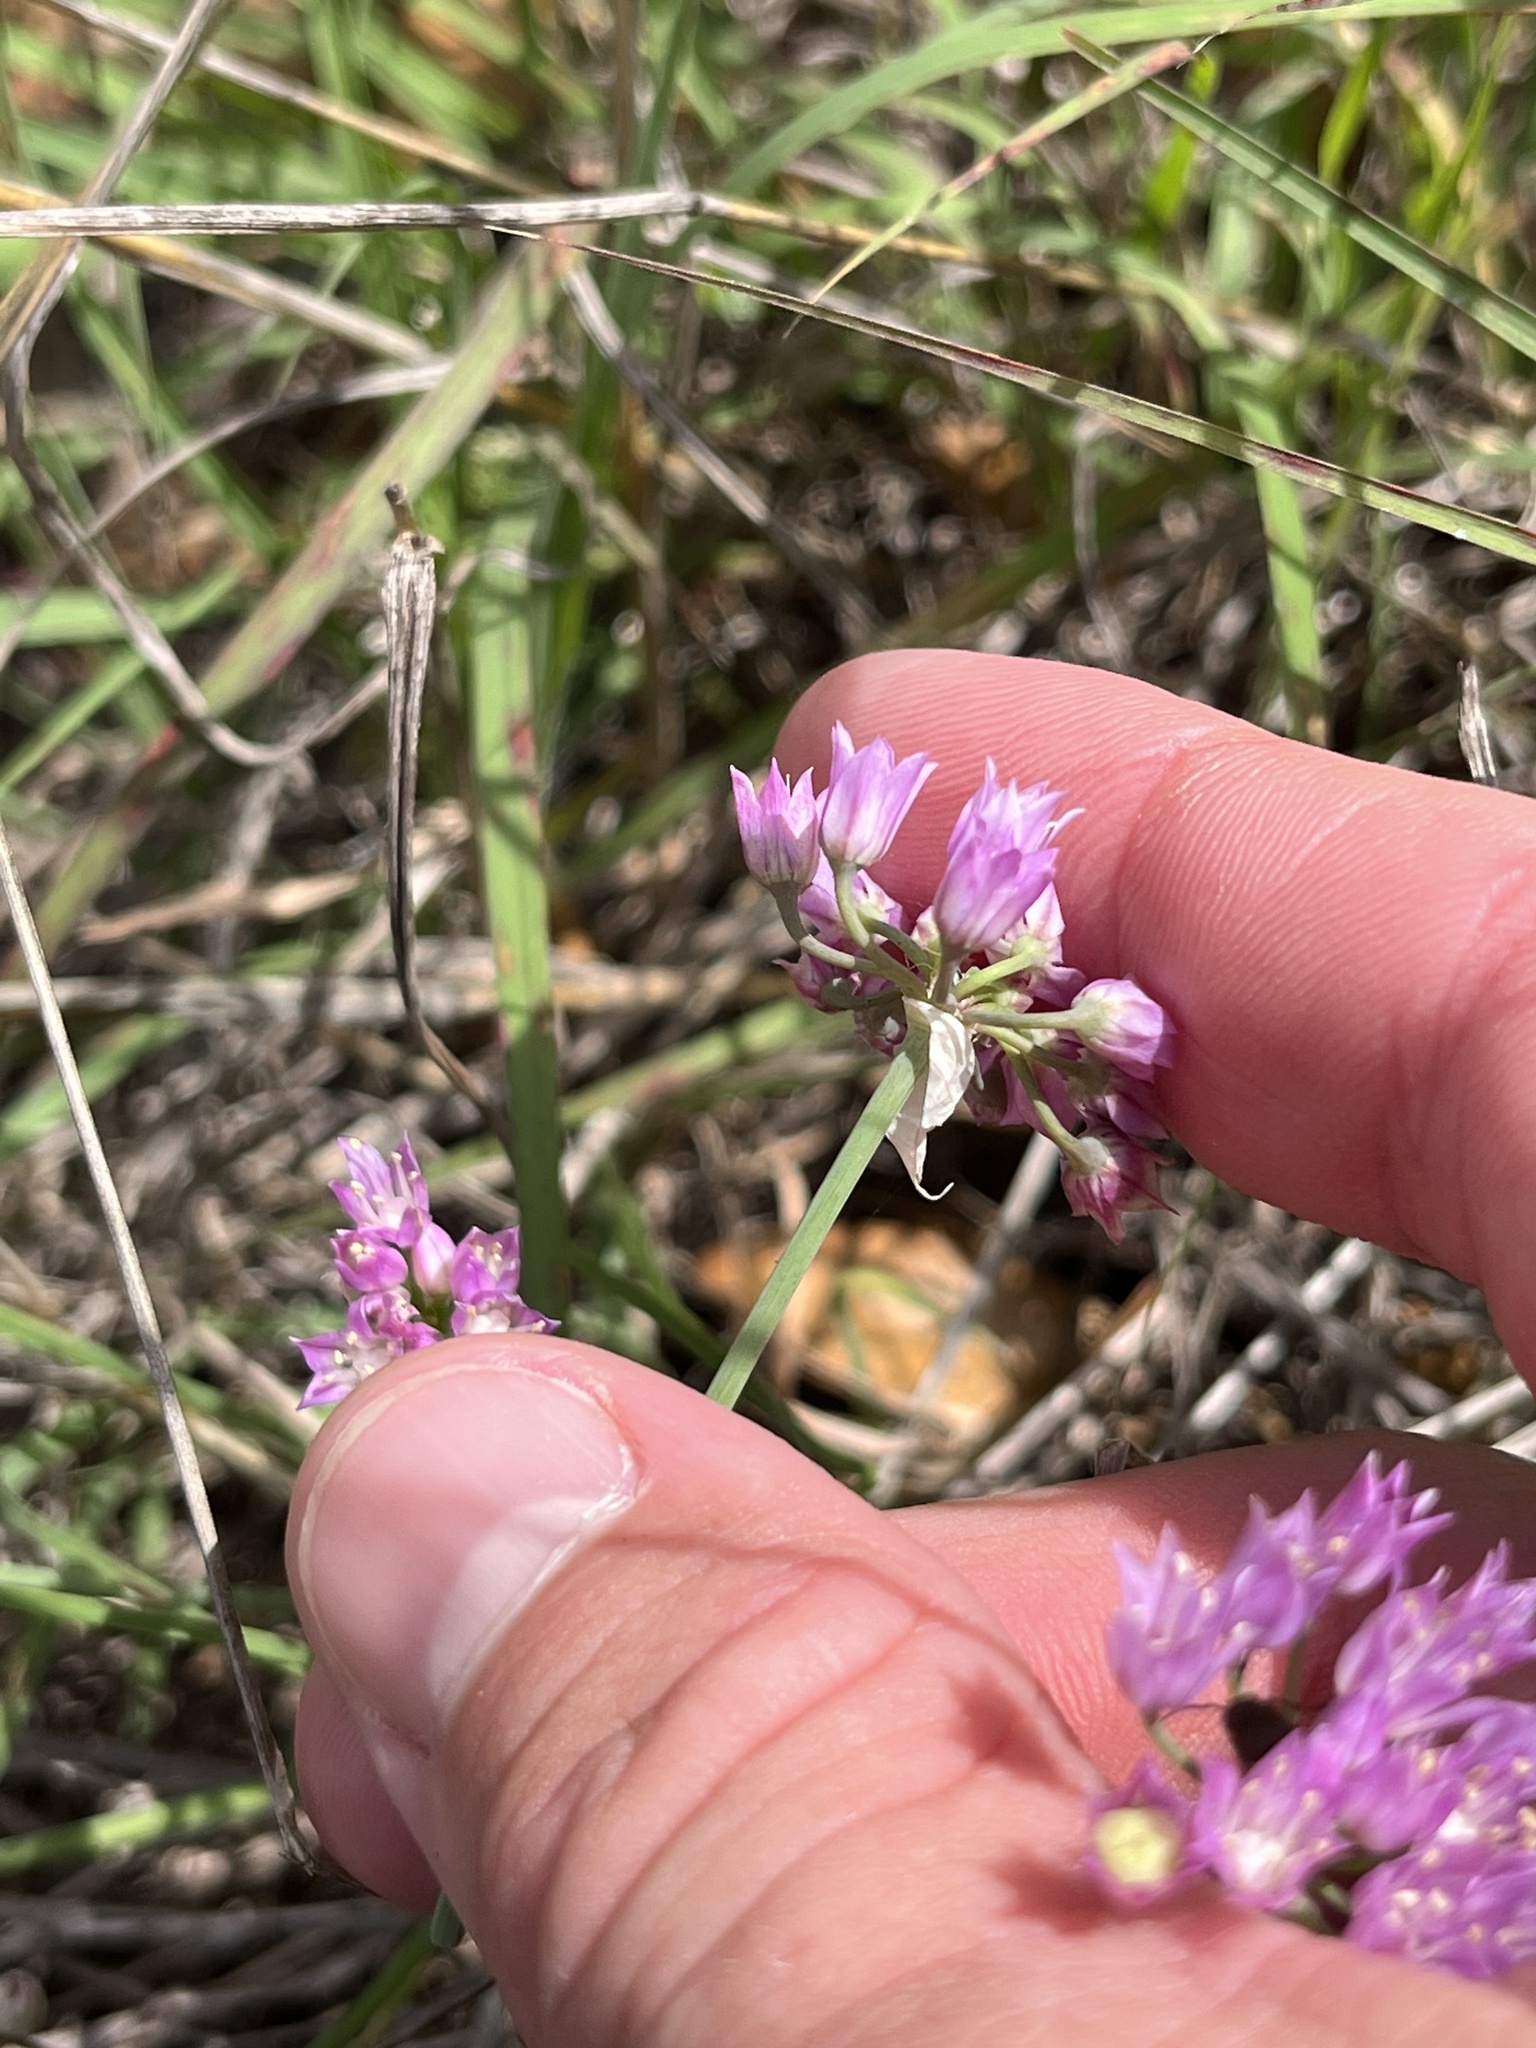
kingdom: Plantae
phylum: Tracheophyta
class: Liliopsida
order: Asparagales
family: Amaryllidaceae
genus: Allium
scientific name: Allium drummondii
